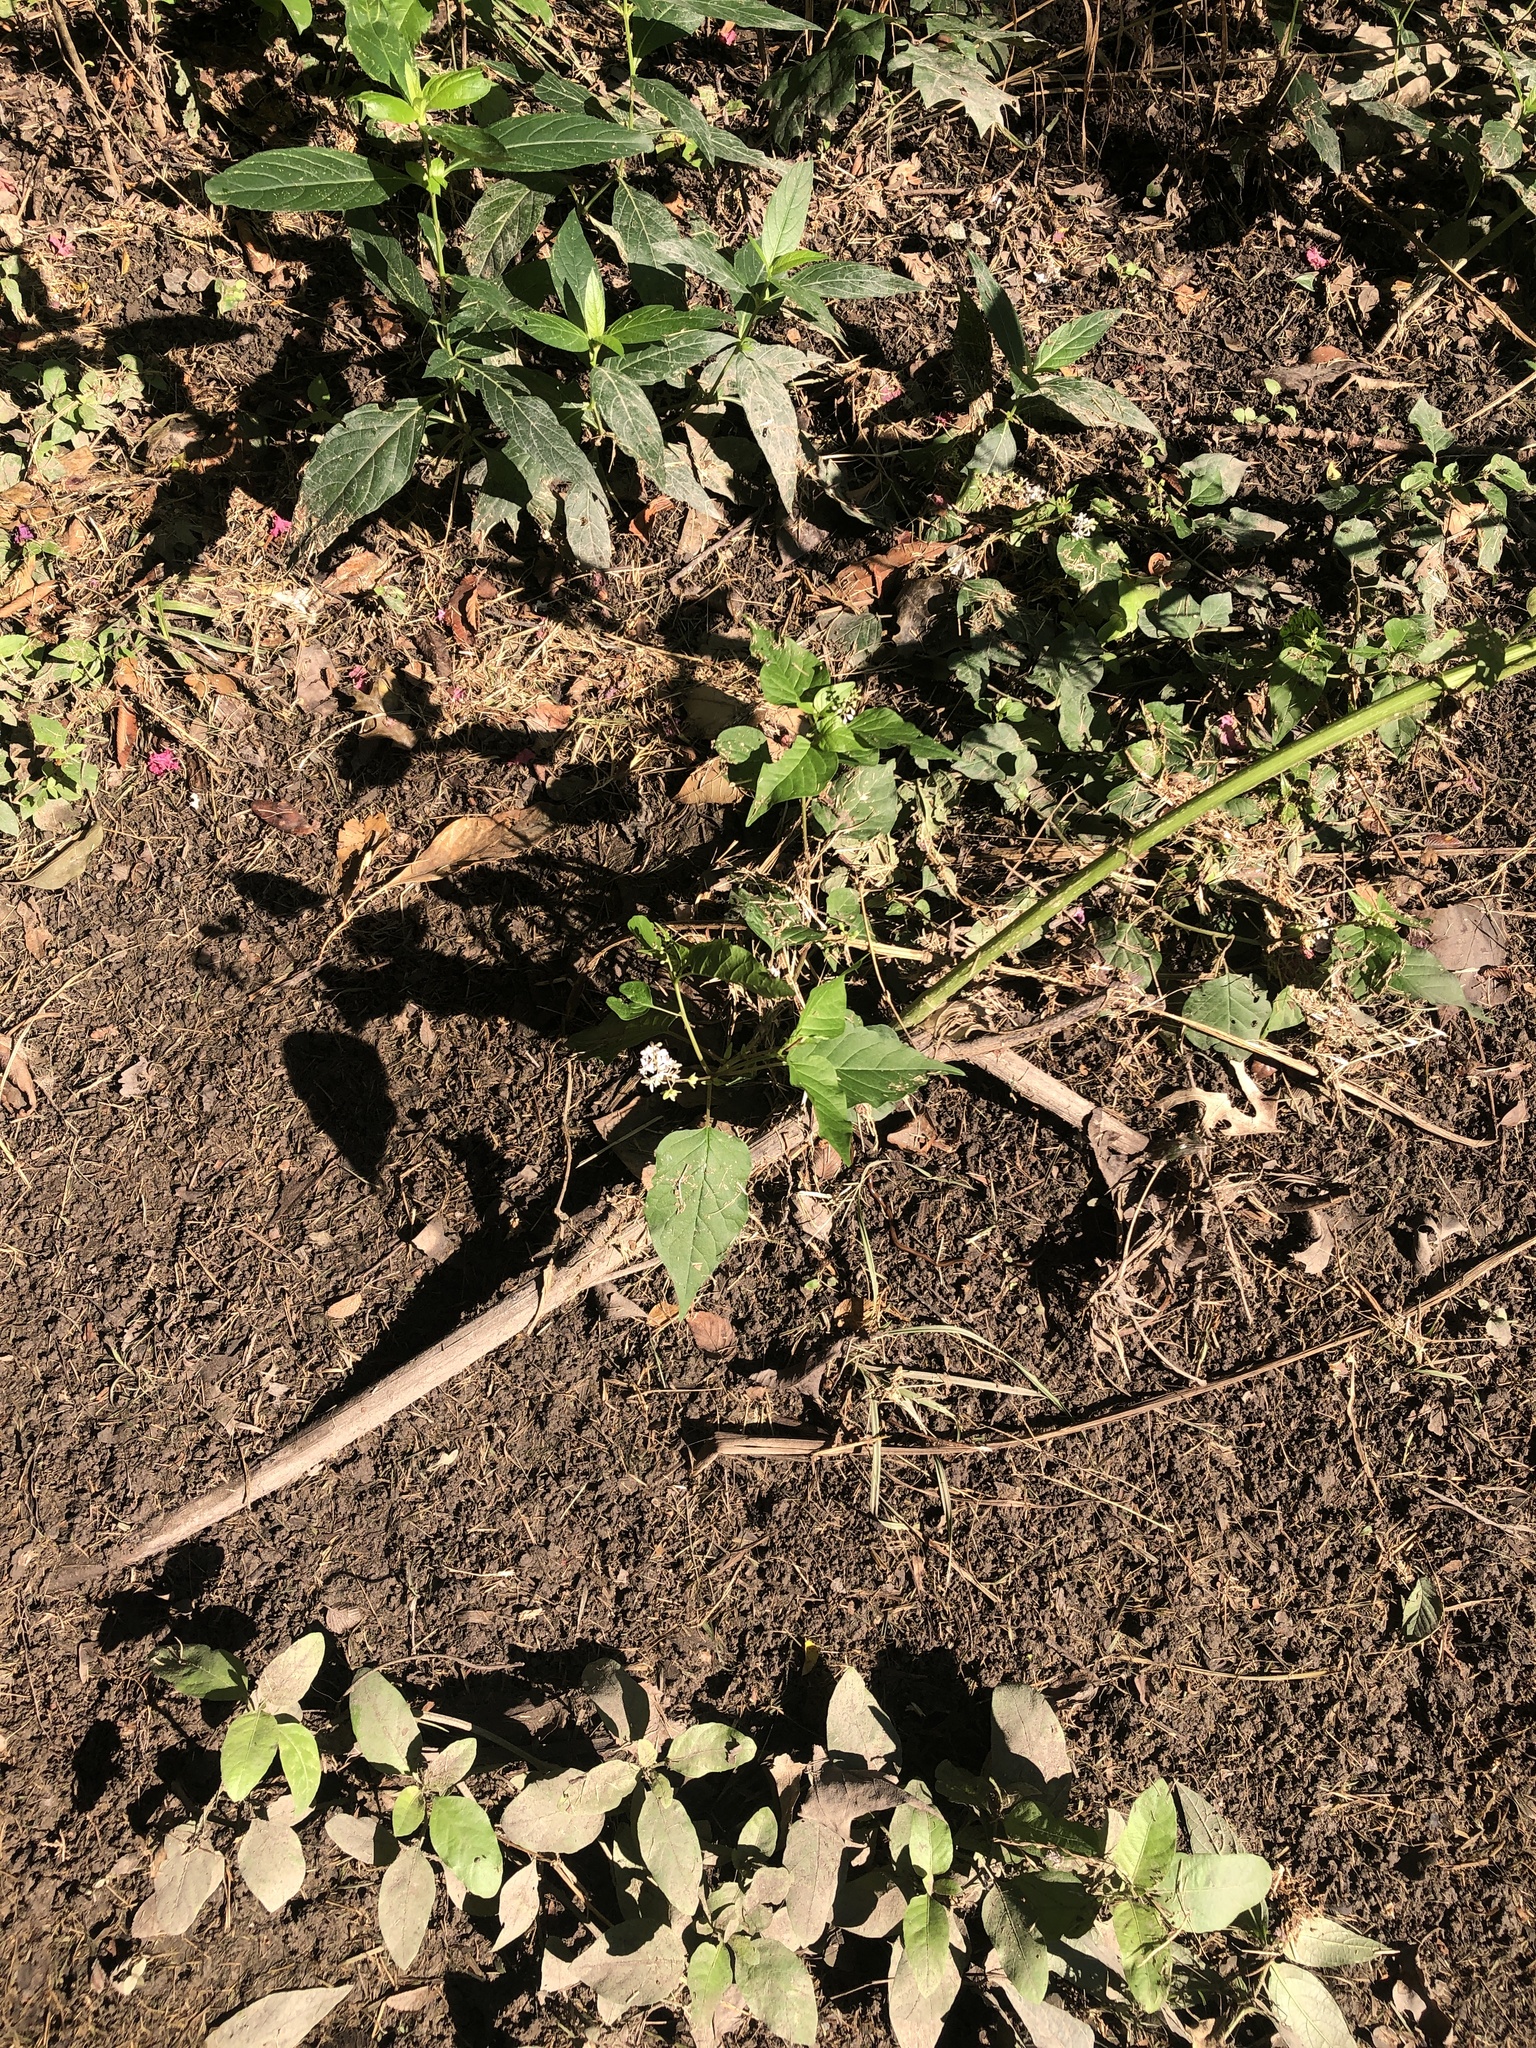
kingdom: Plantae
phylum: Tracheophyta
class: Magnoliopsida
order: Caryophyllales
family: Phytolaccaceae
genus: Rivina
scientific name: Rivina humilis
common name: Rougeplant
